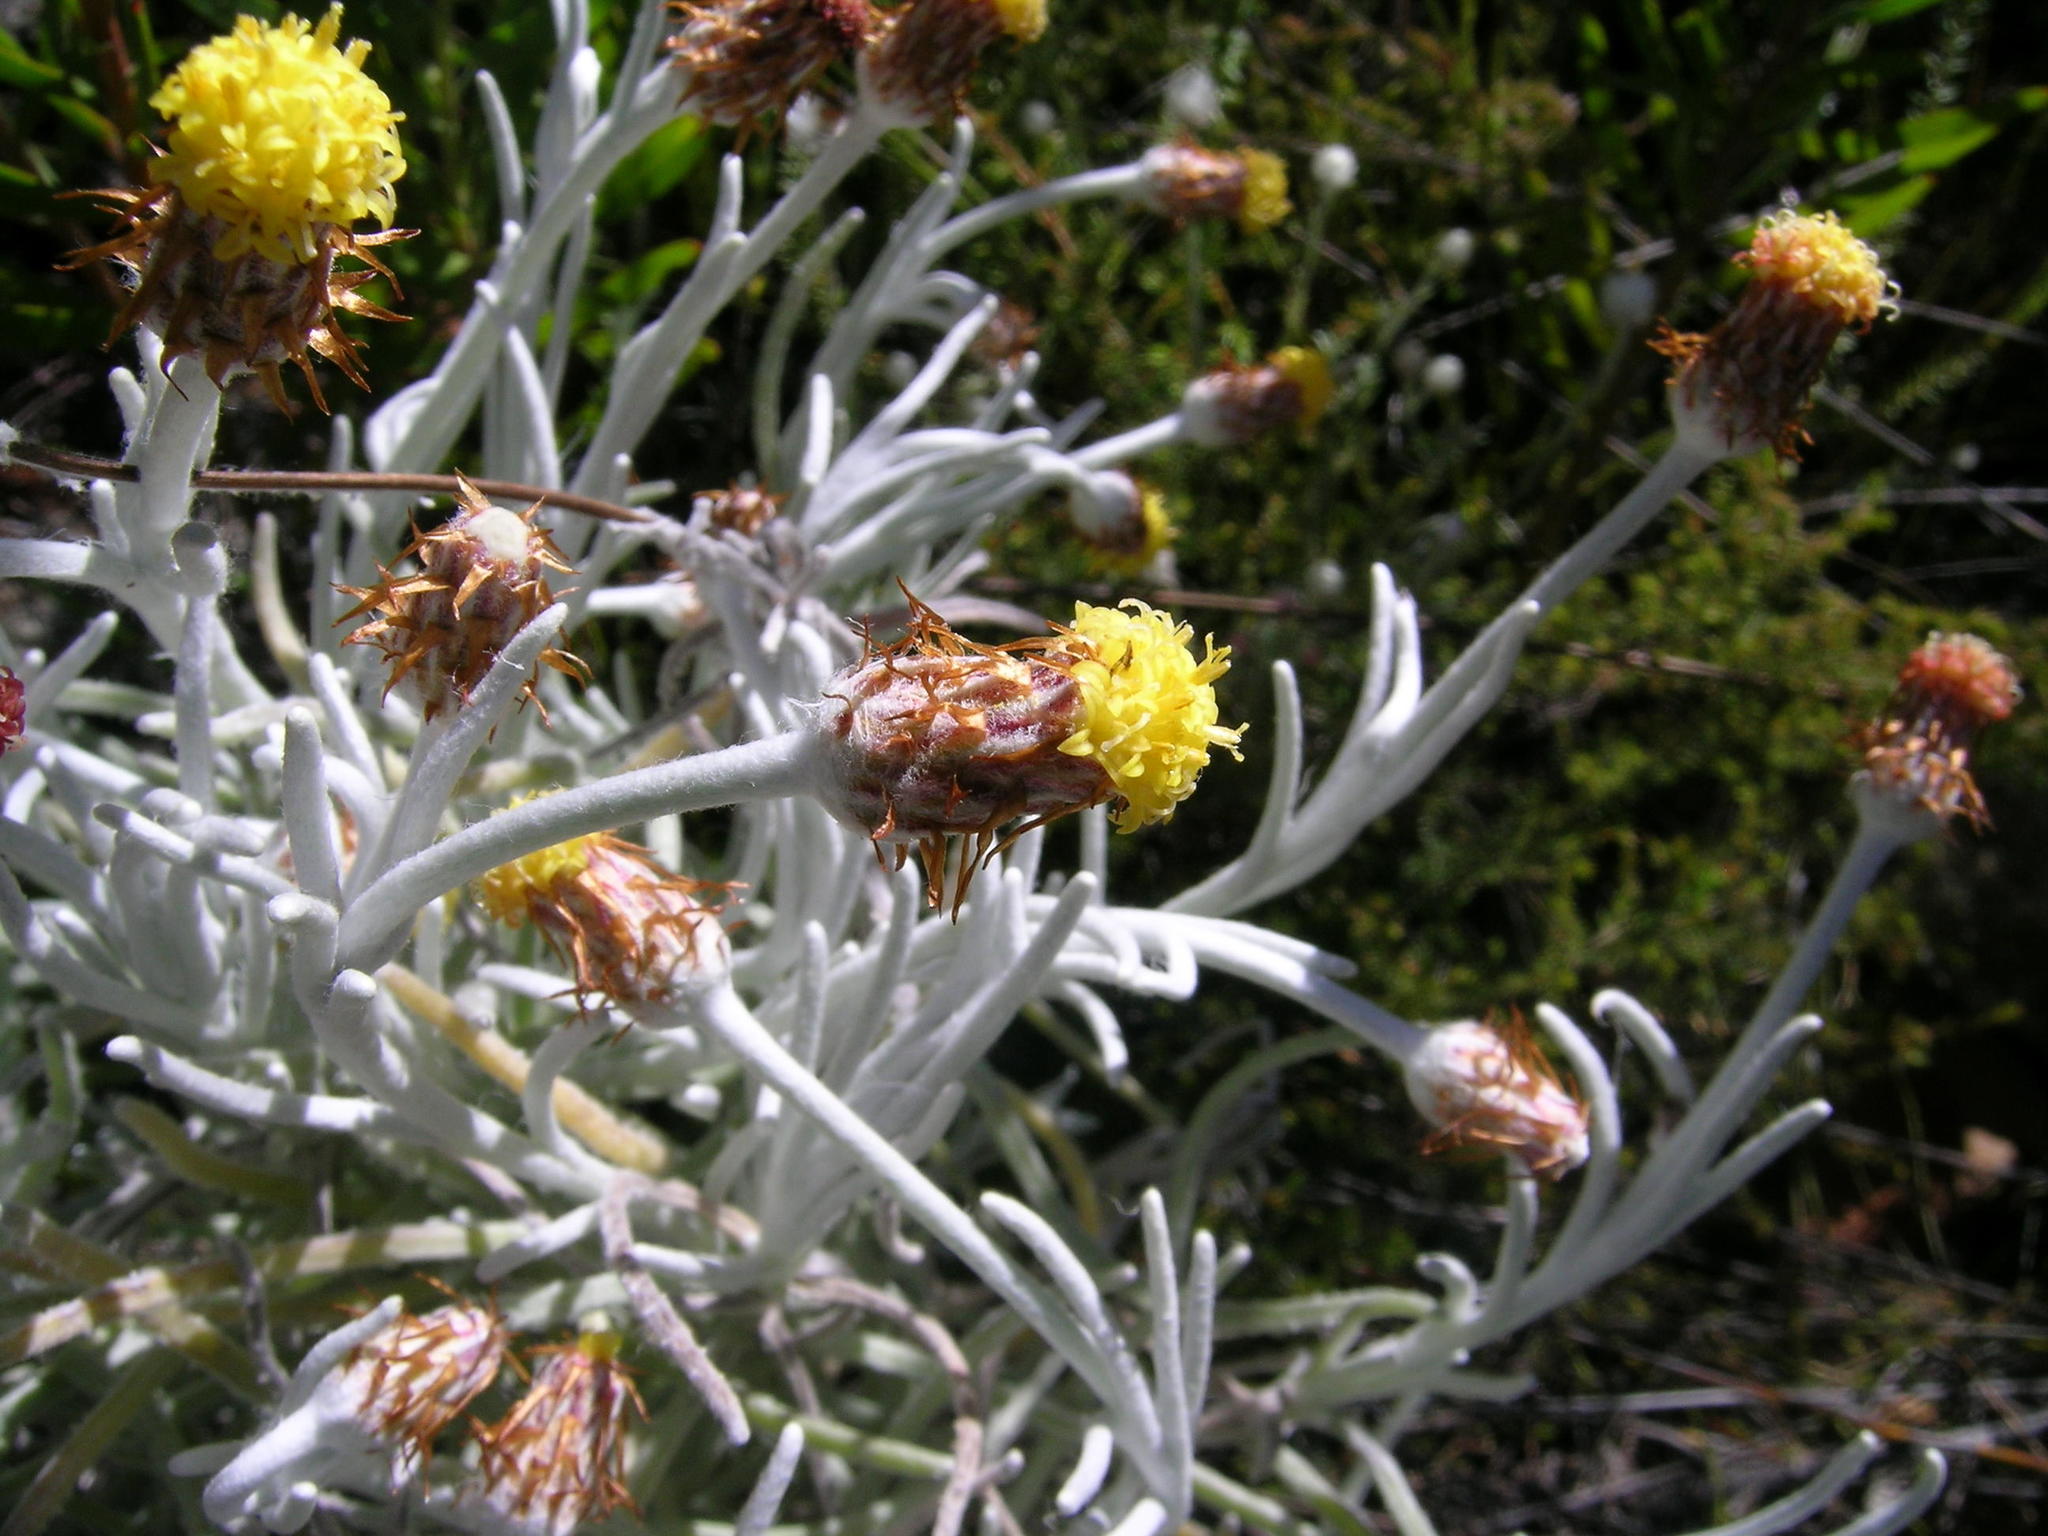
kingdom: Plantae
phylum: Tracheophyta
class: Magnoliopsida
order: Asterales
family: Asteraceae
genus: Syncarpha
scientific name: Syncarpha gnaphaloides
